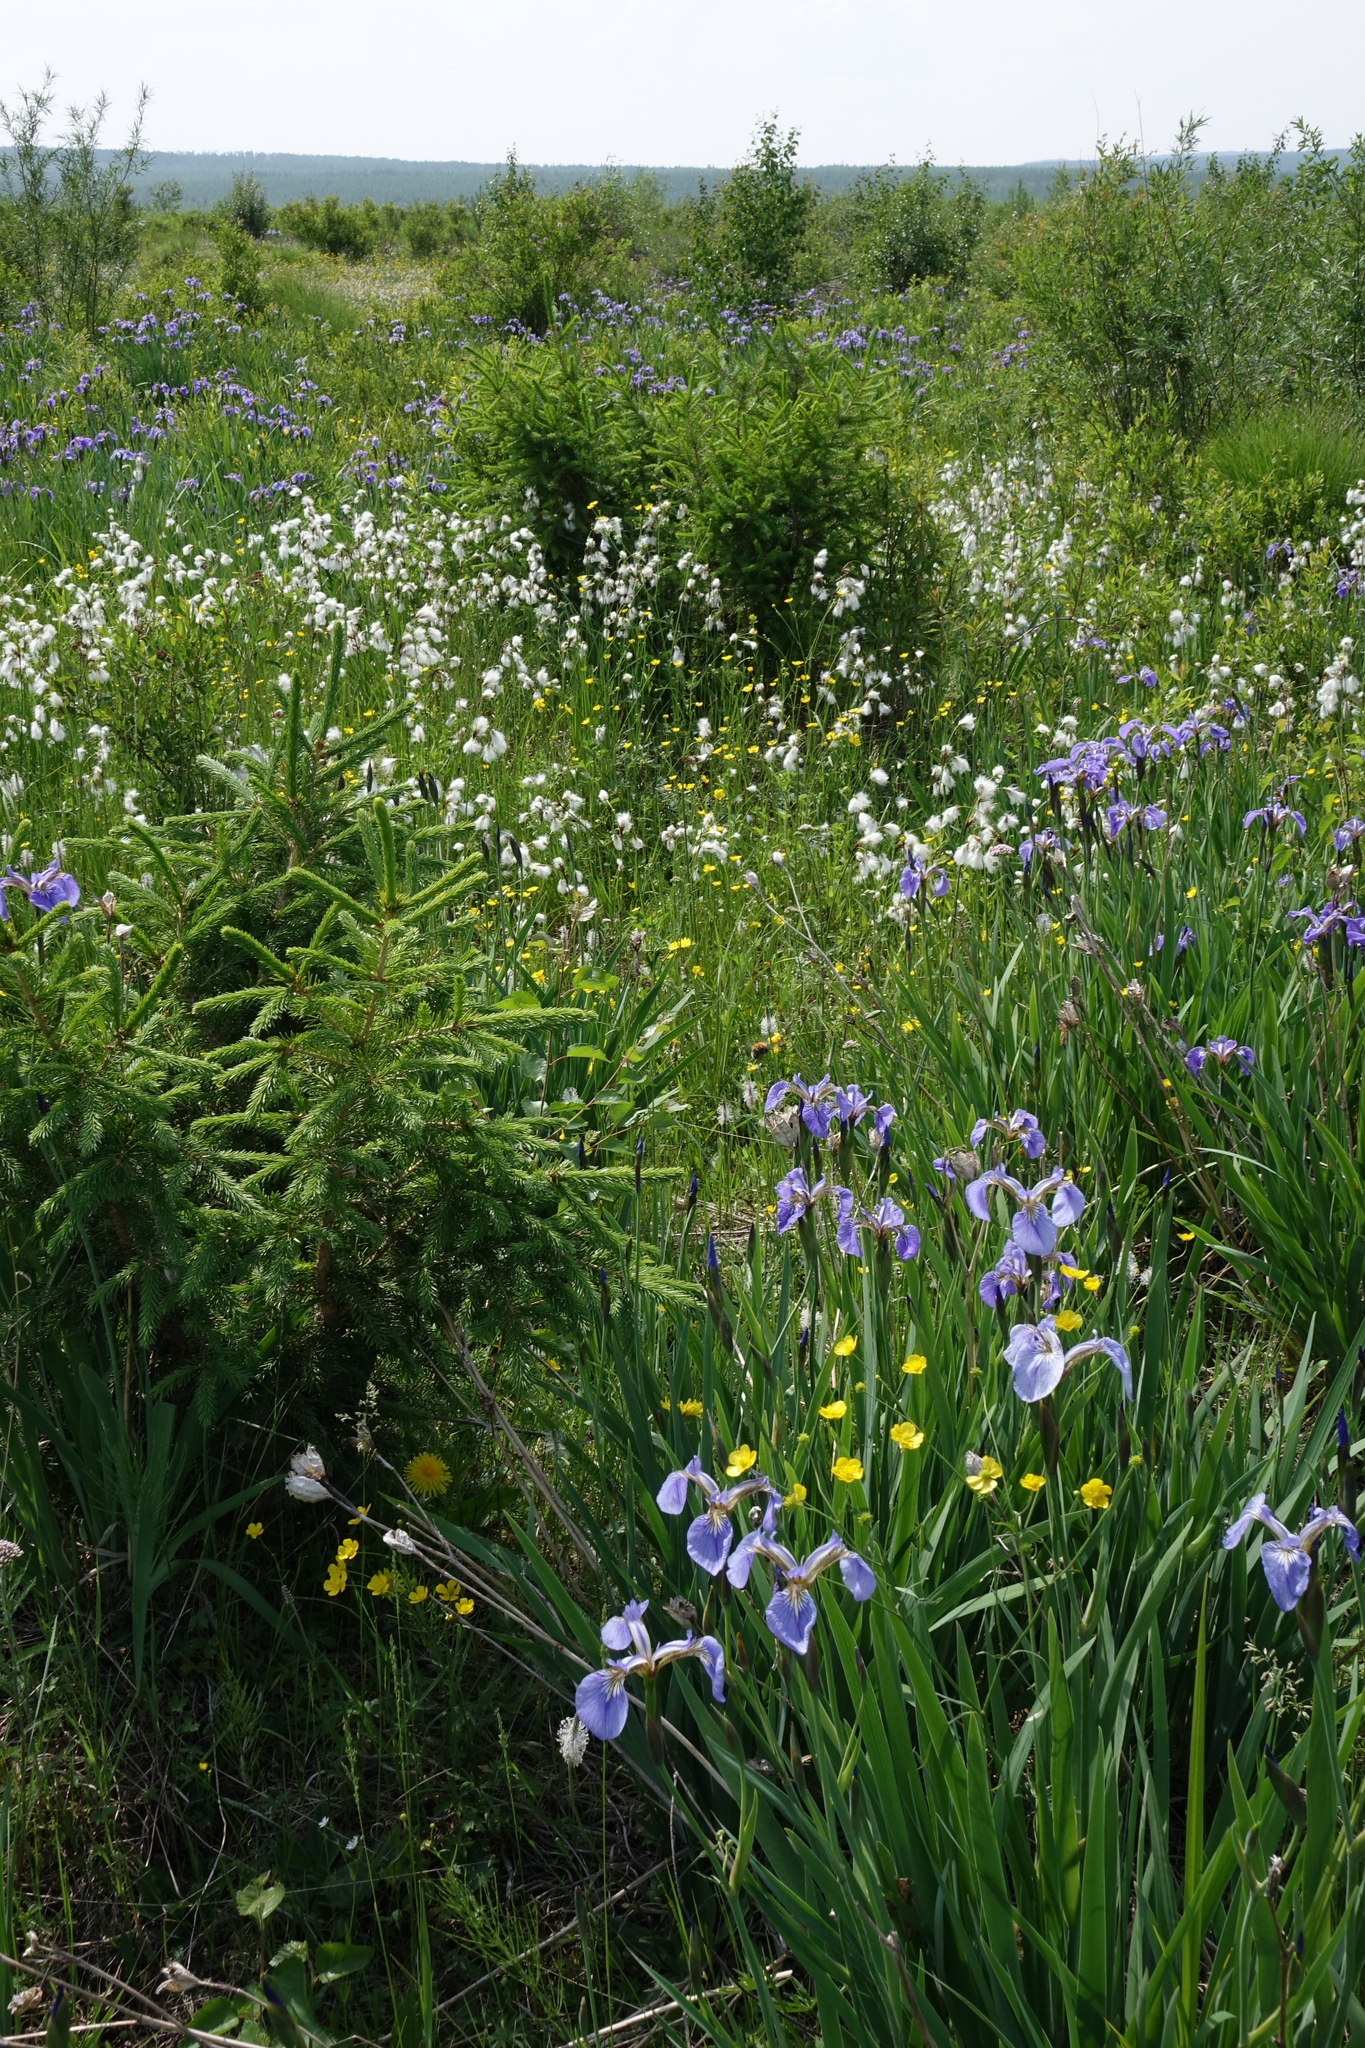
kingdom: Plantae
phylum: Tracheophyta
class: Liliopsida
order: Asparagales
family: Iridaceae
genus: Iris
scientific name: Iris setosa
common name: Arctic blue flag
